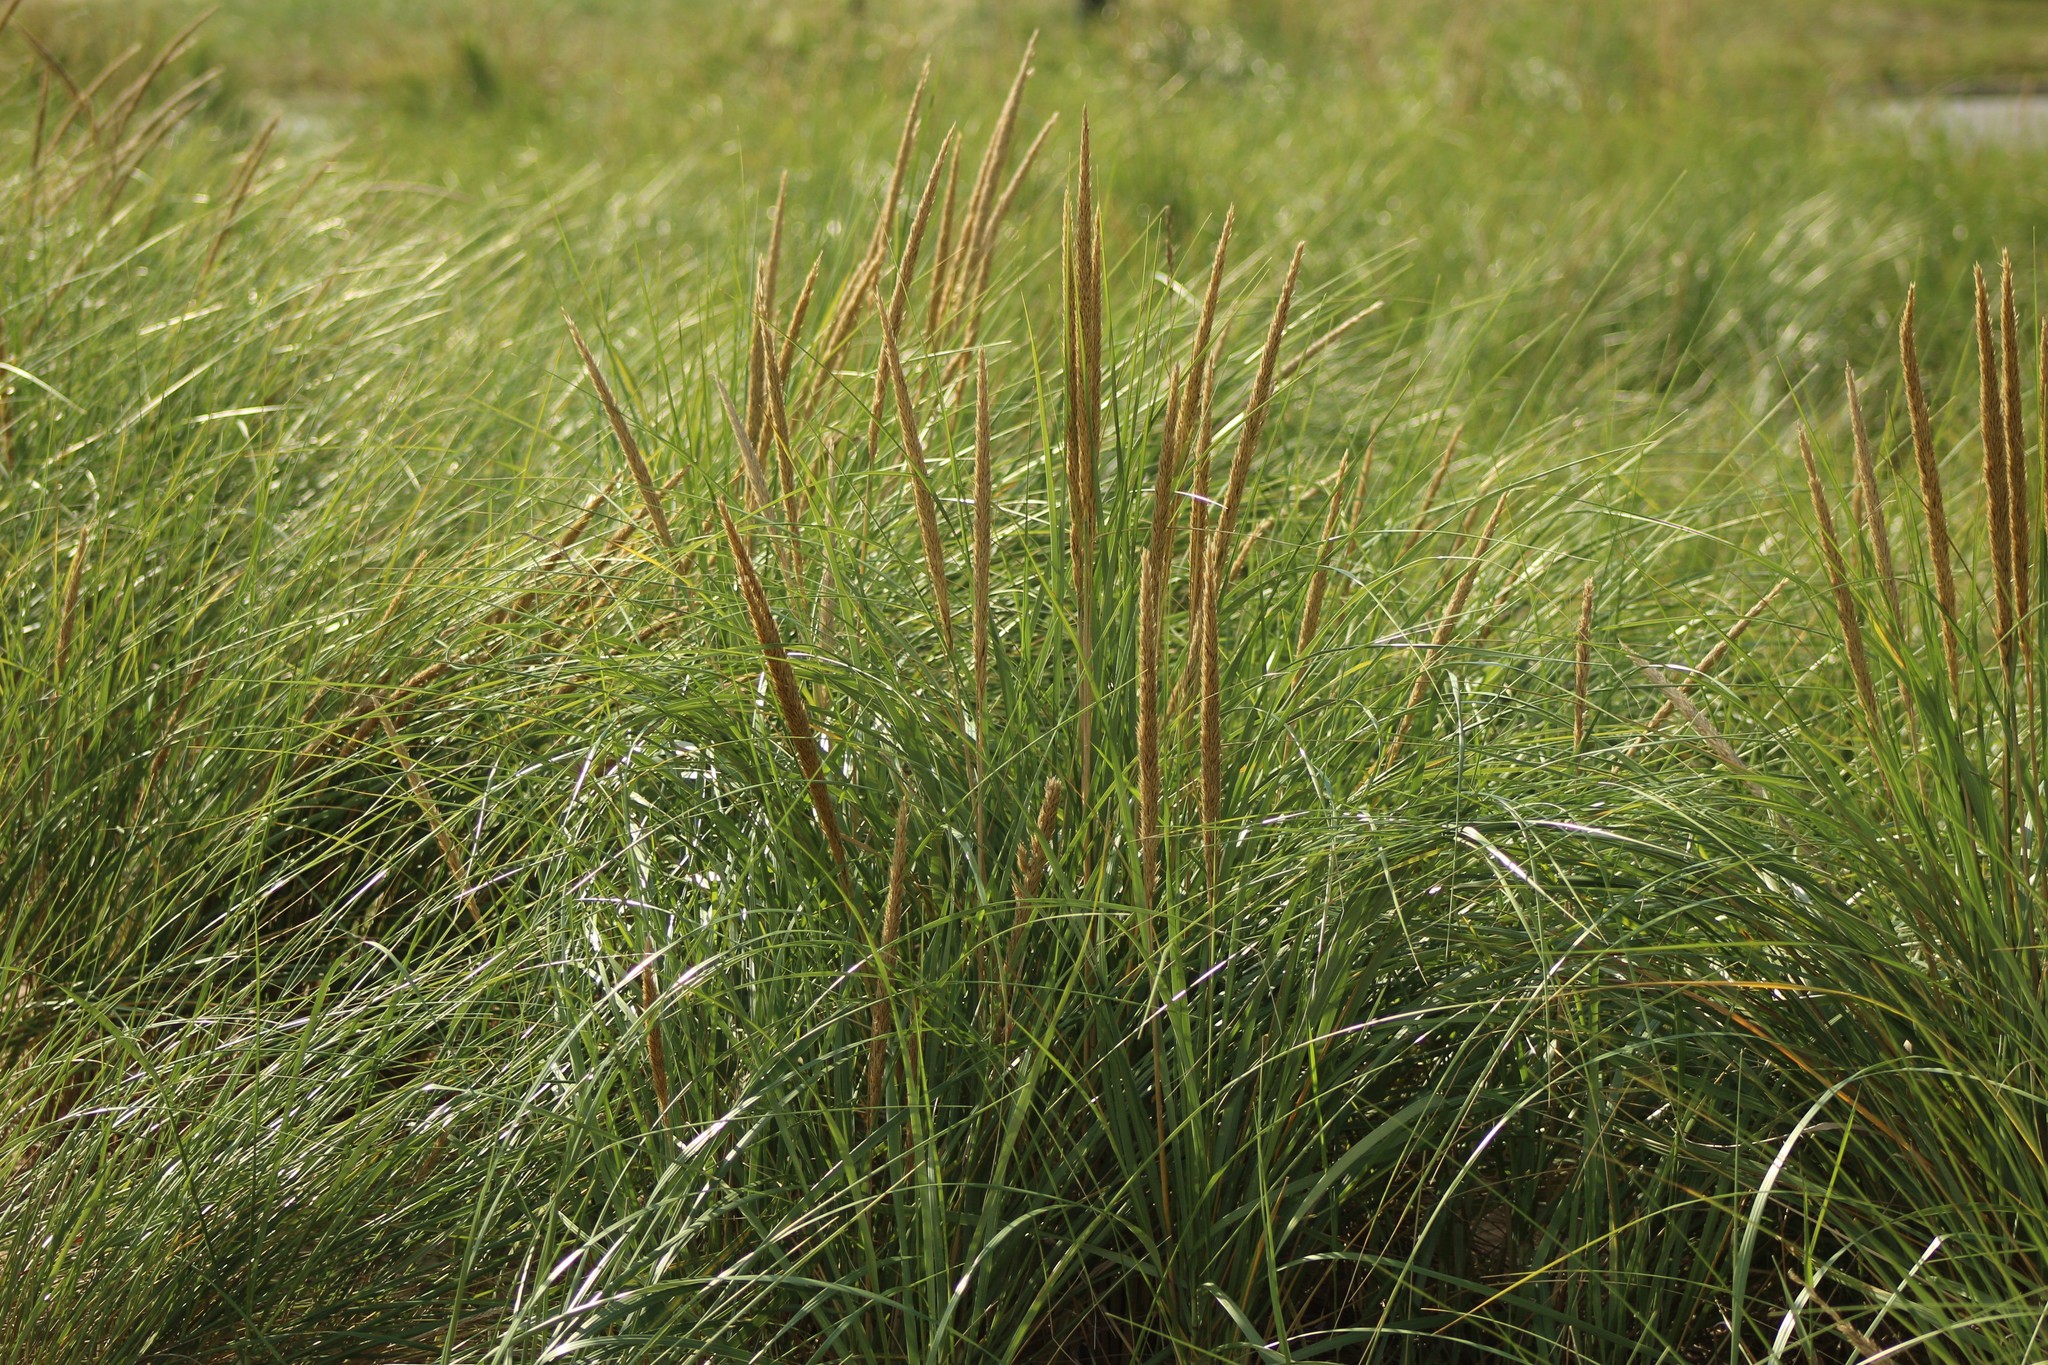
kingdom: Plantae
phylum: Tracheophyta
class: Liliopsida
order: Poales
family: Poaceae
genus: Calamagrostis
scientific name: Calamagrostis breviligulata
